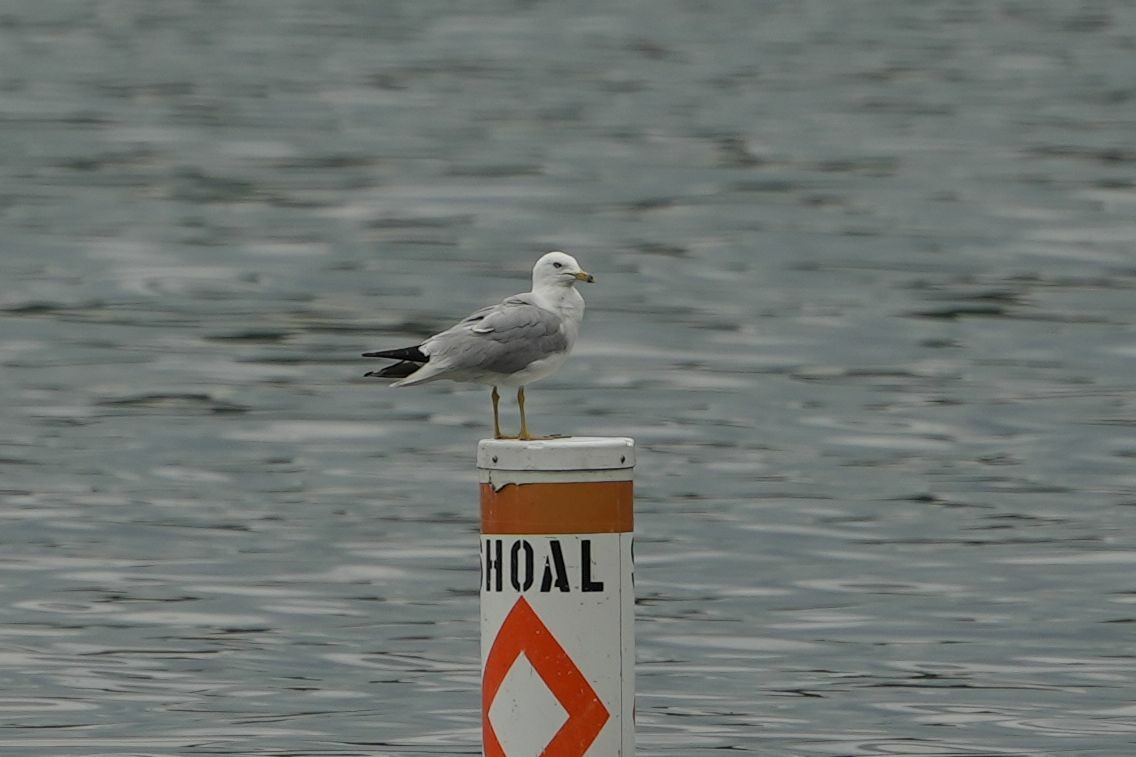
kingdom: Animalia
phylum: Chordata
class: Aves
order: Charadriiformes
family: Laridae
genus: Larus
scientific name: Larus delawarensis
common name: Ring-billed gull
